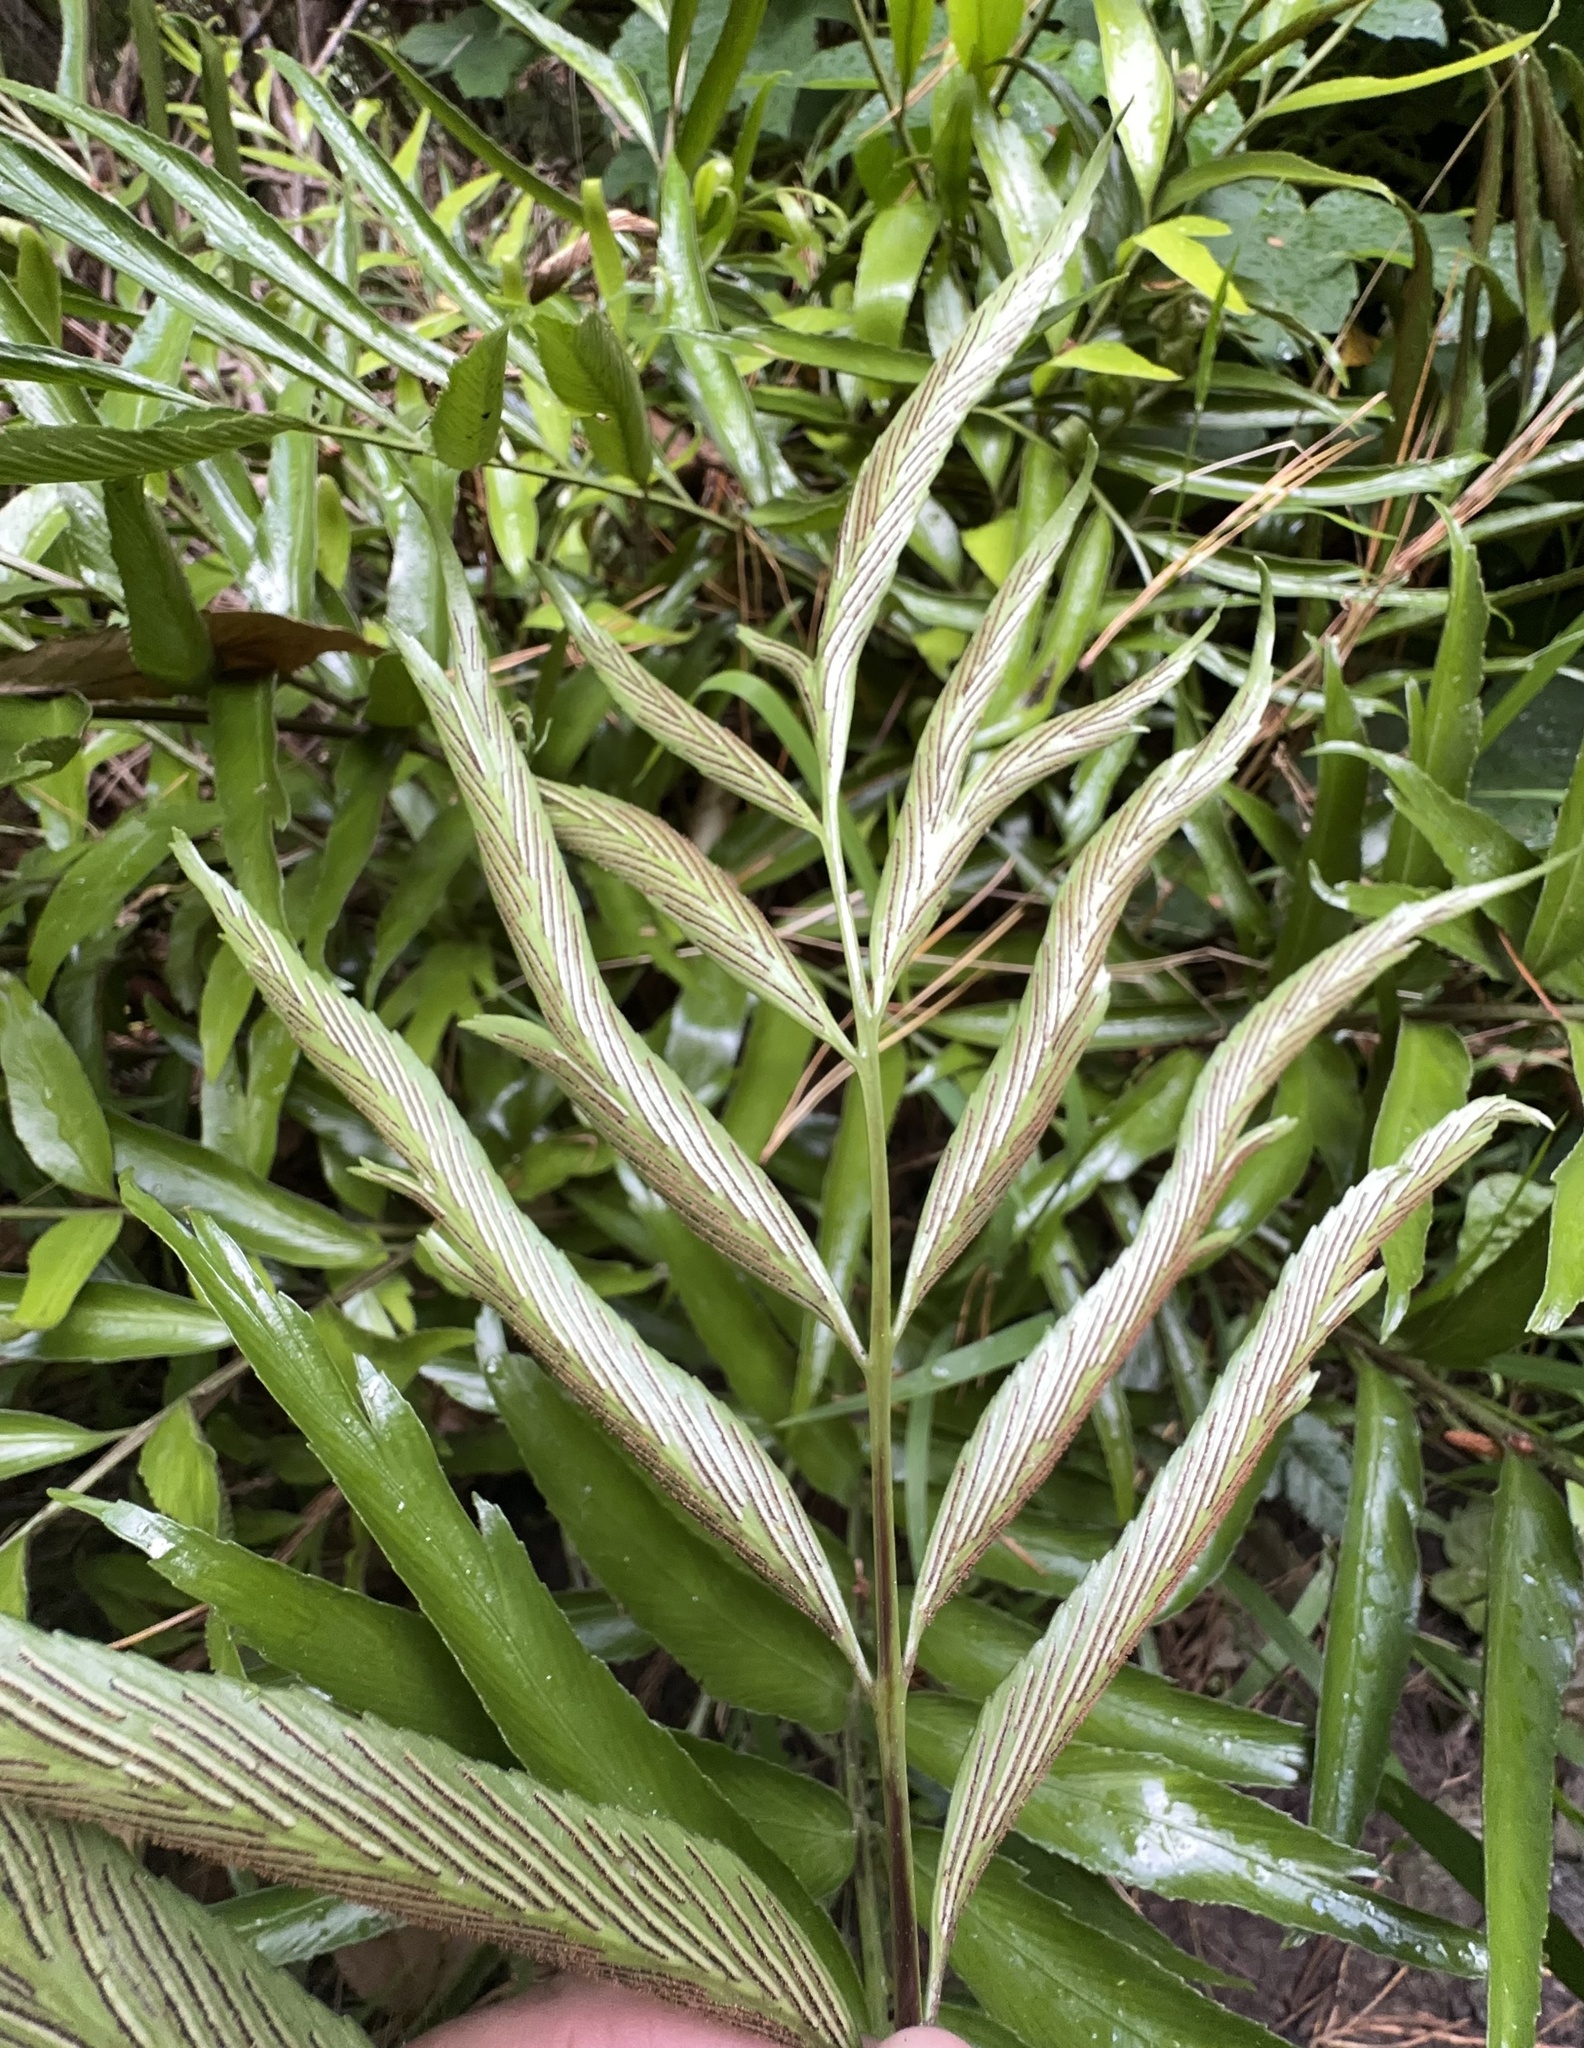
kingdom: Plantae
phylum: Tracheophyta
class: Polypodiopsida
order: Polypodiales
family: Aspleniaceae
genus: Asplenium
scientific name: Asplenium oblongifolium
